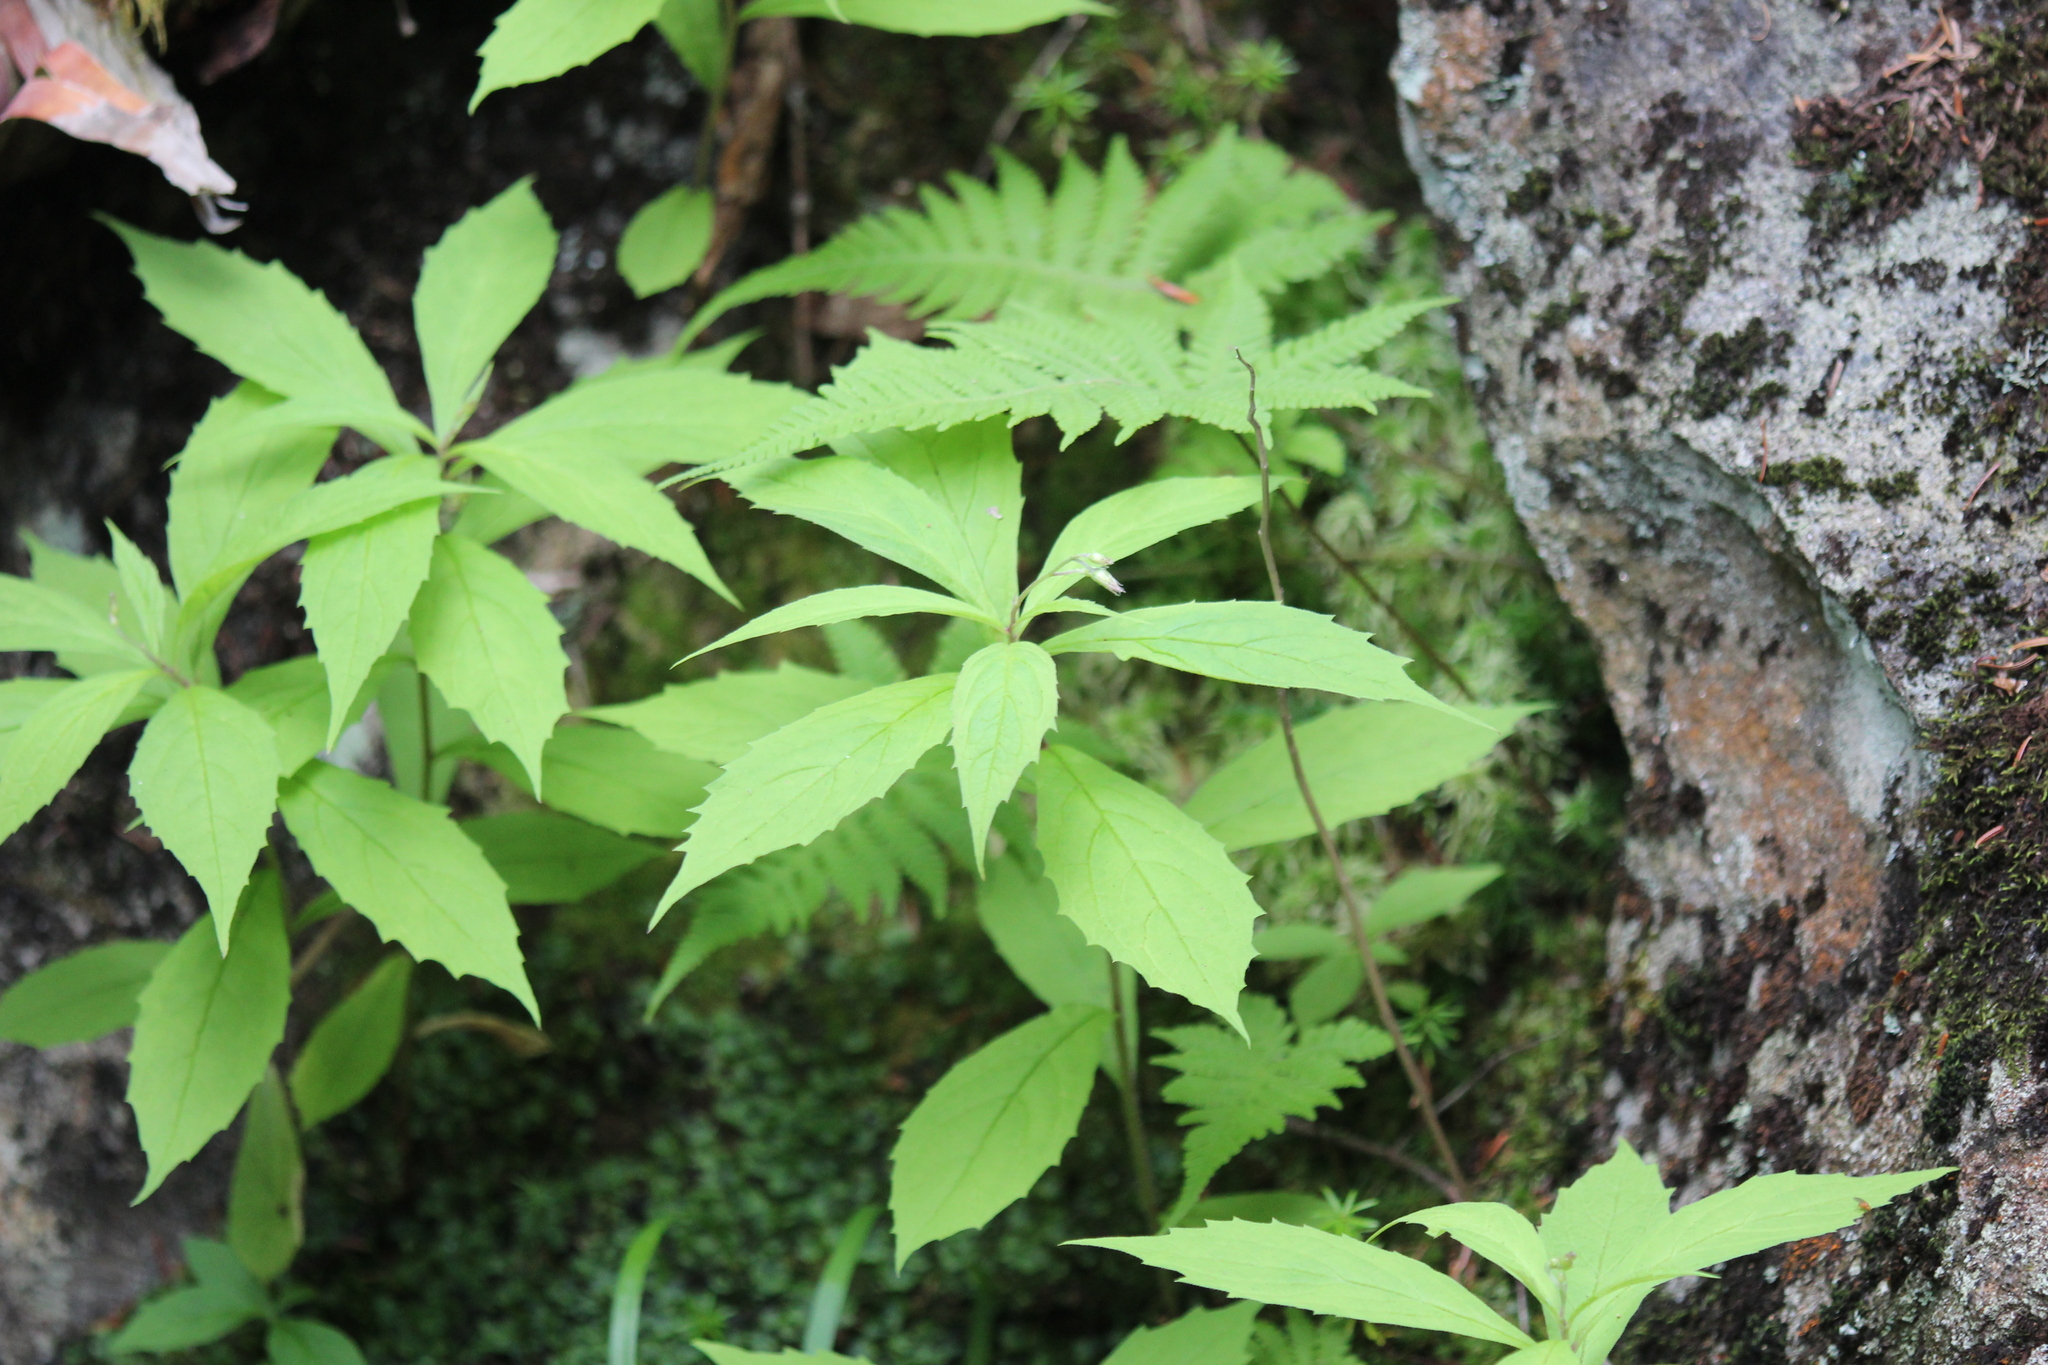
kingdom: Plantae
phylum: Tracheophyta
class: Magnoliopsida
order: Asterales
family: Asteraceae
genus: Oclemena
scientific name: Oclemena acuminata
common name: Mountain aster
